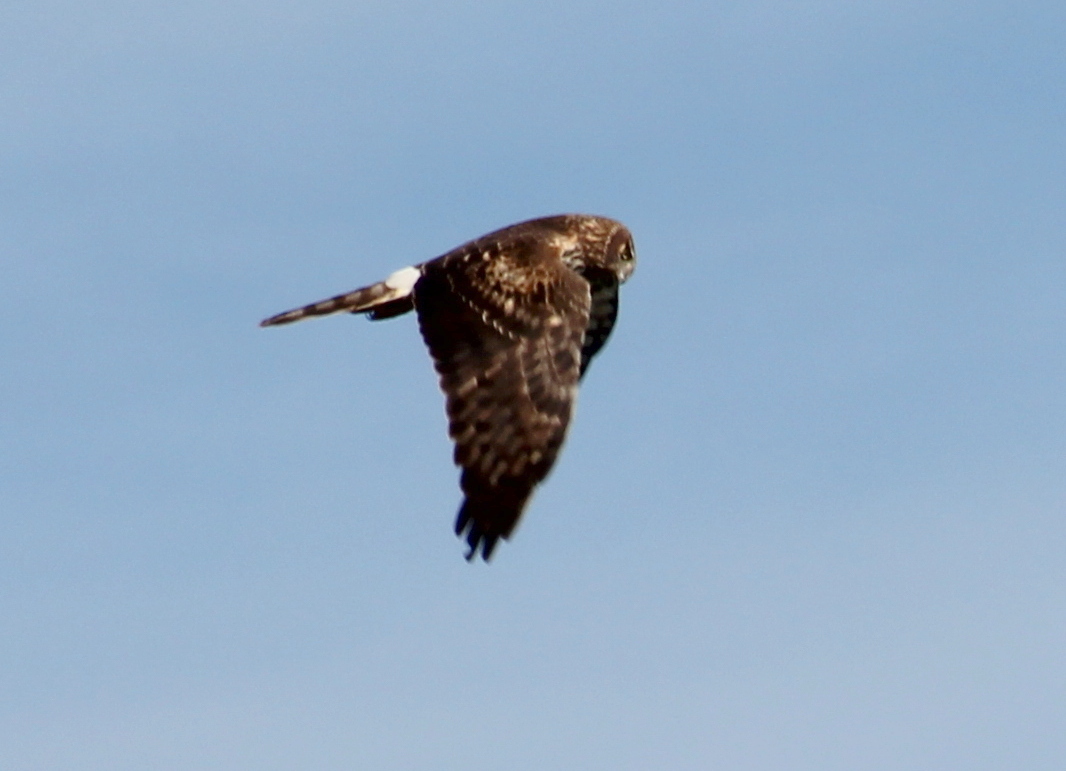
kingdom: Animalia
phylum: Chordata
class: Aves
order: Accipitriformes
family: Accipitridae
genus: Circus
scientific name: Circus cyaneus
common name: Hen harrier
